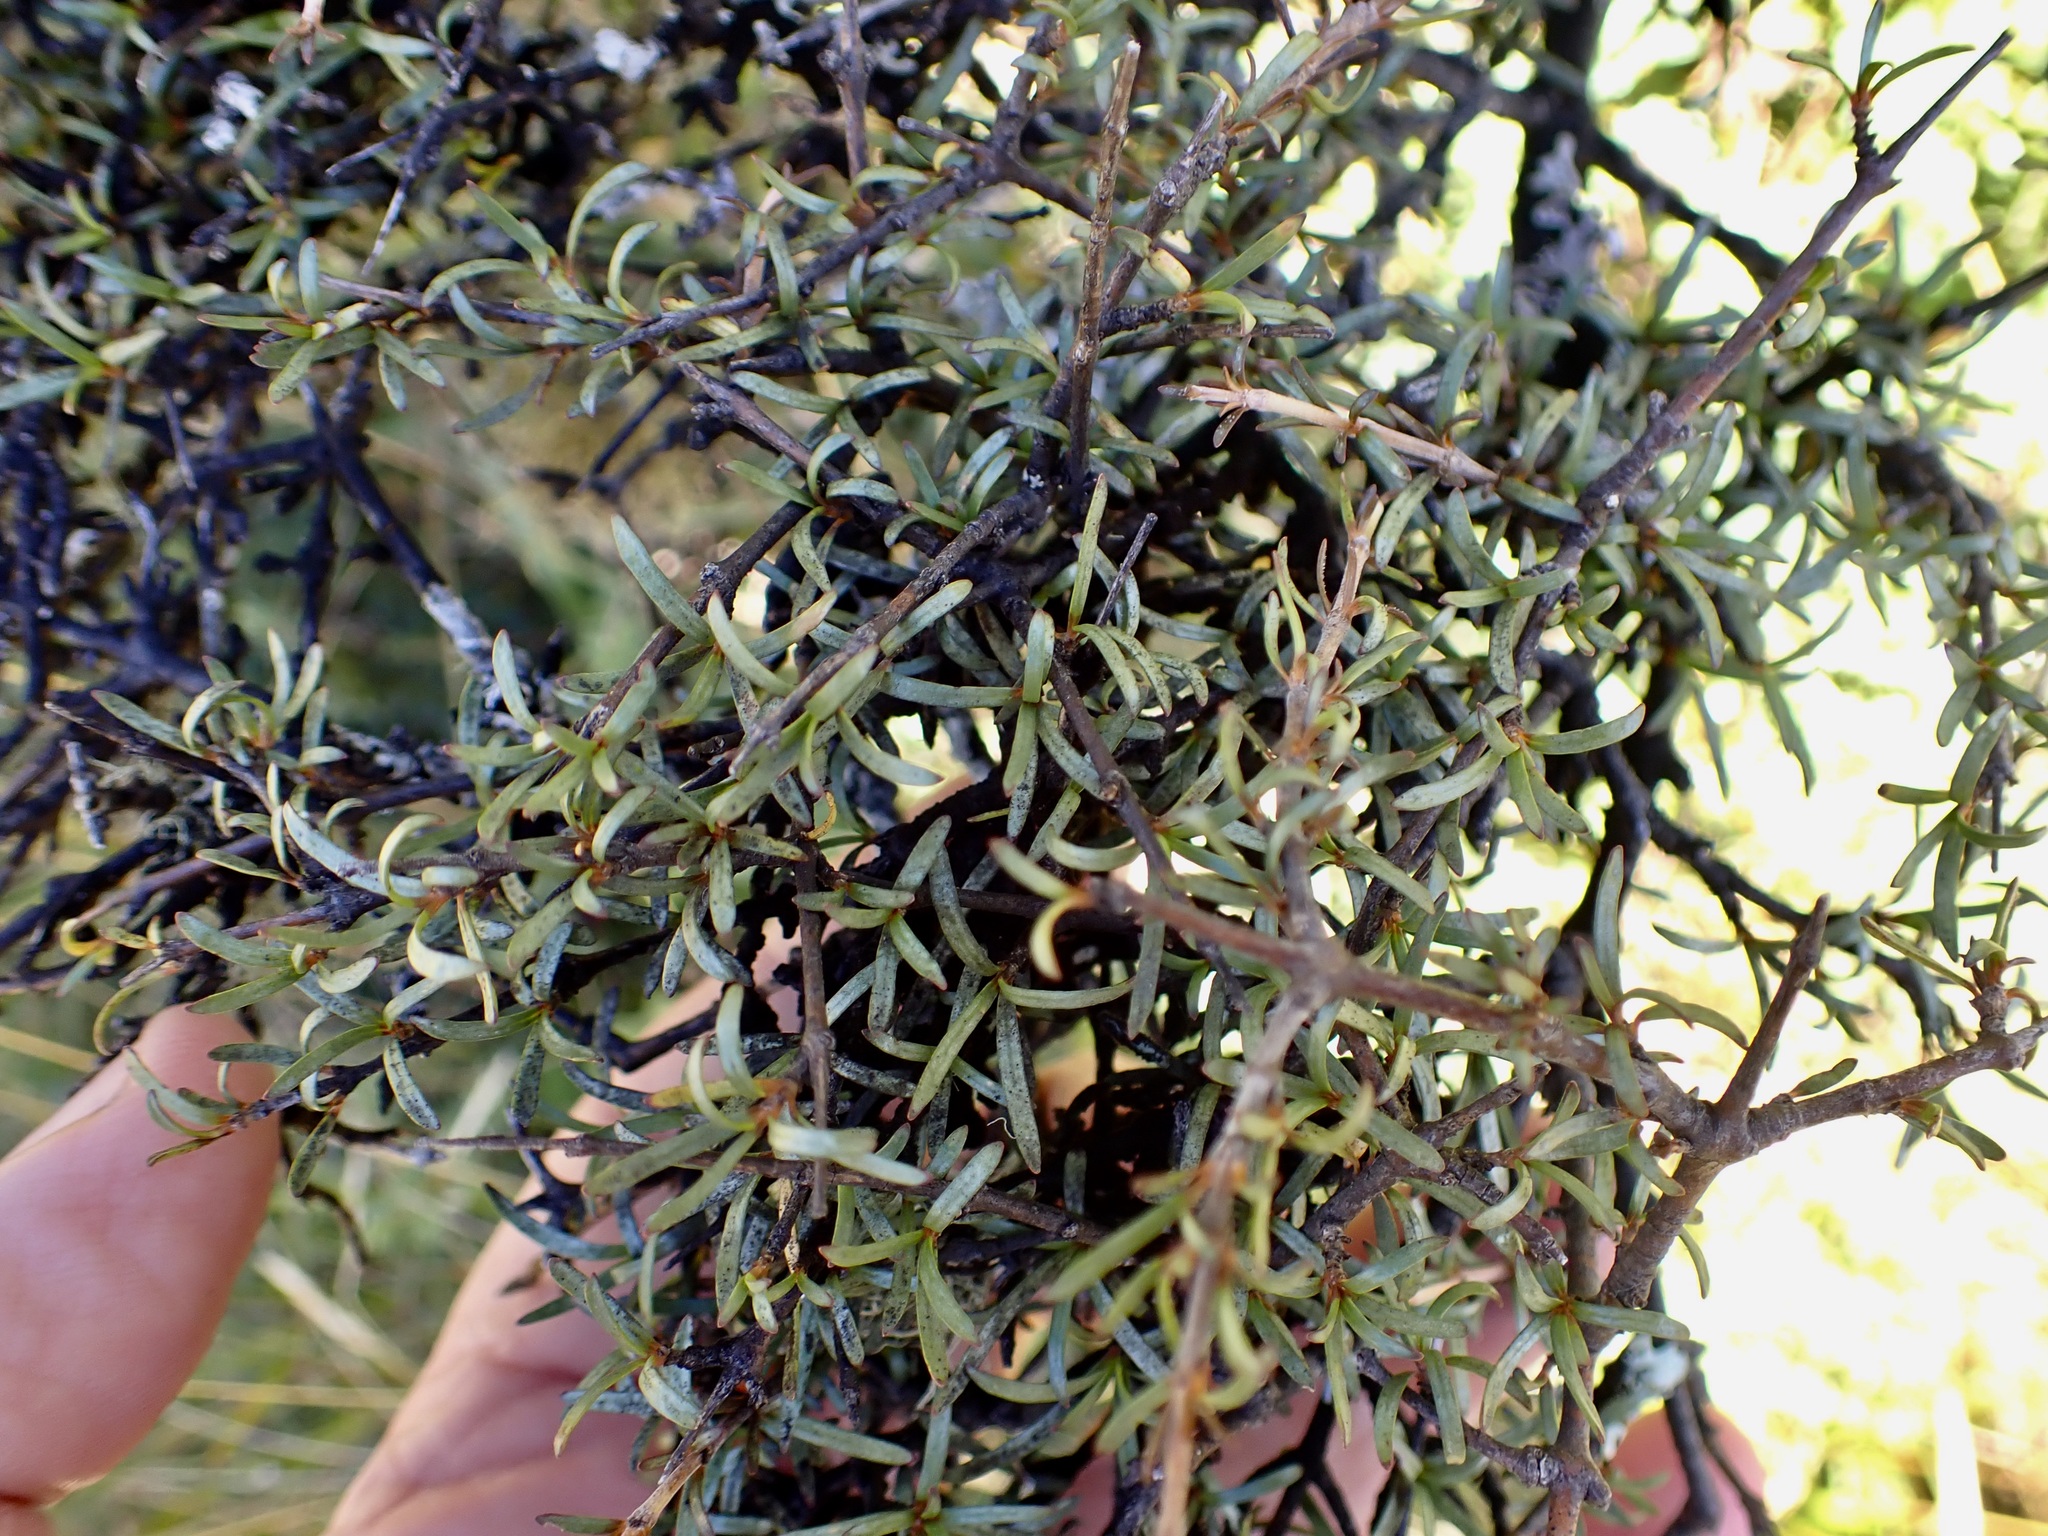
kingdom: Plantae
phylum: Tracheophyta
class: Magnoliopsida
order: Gentianales
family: Rubiaceae
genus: Coprosma
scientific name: Coprosma rugosa
